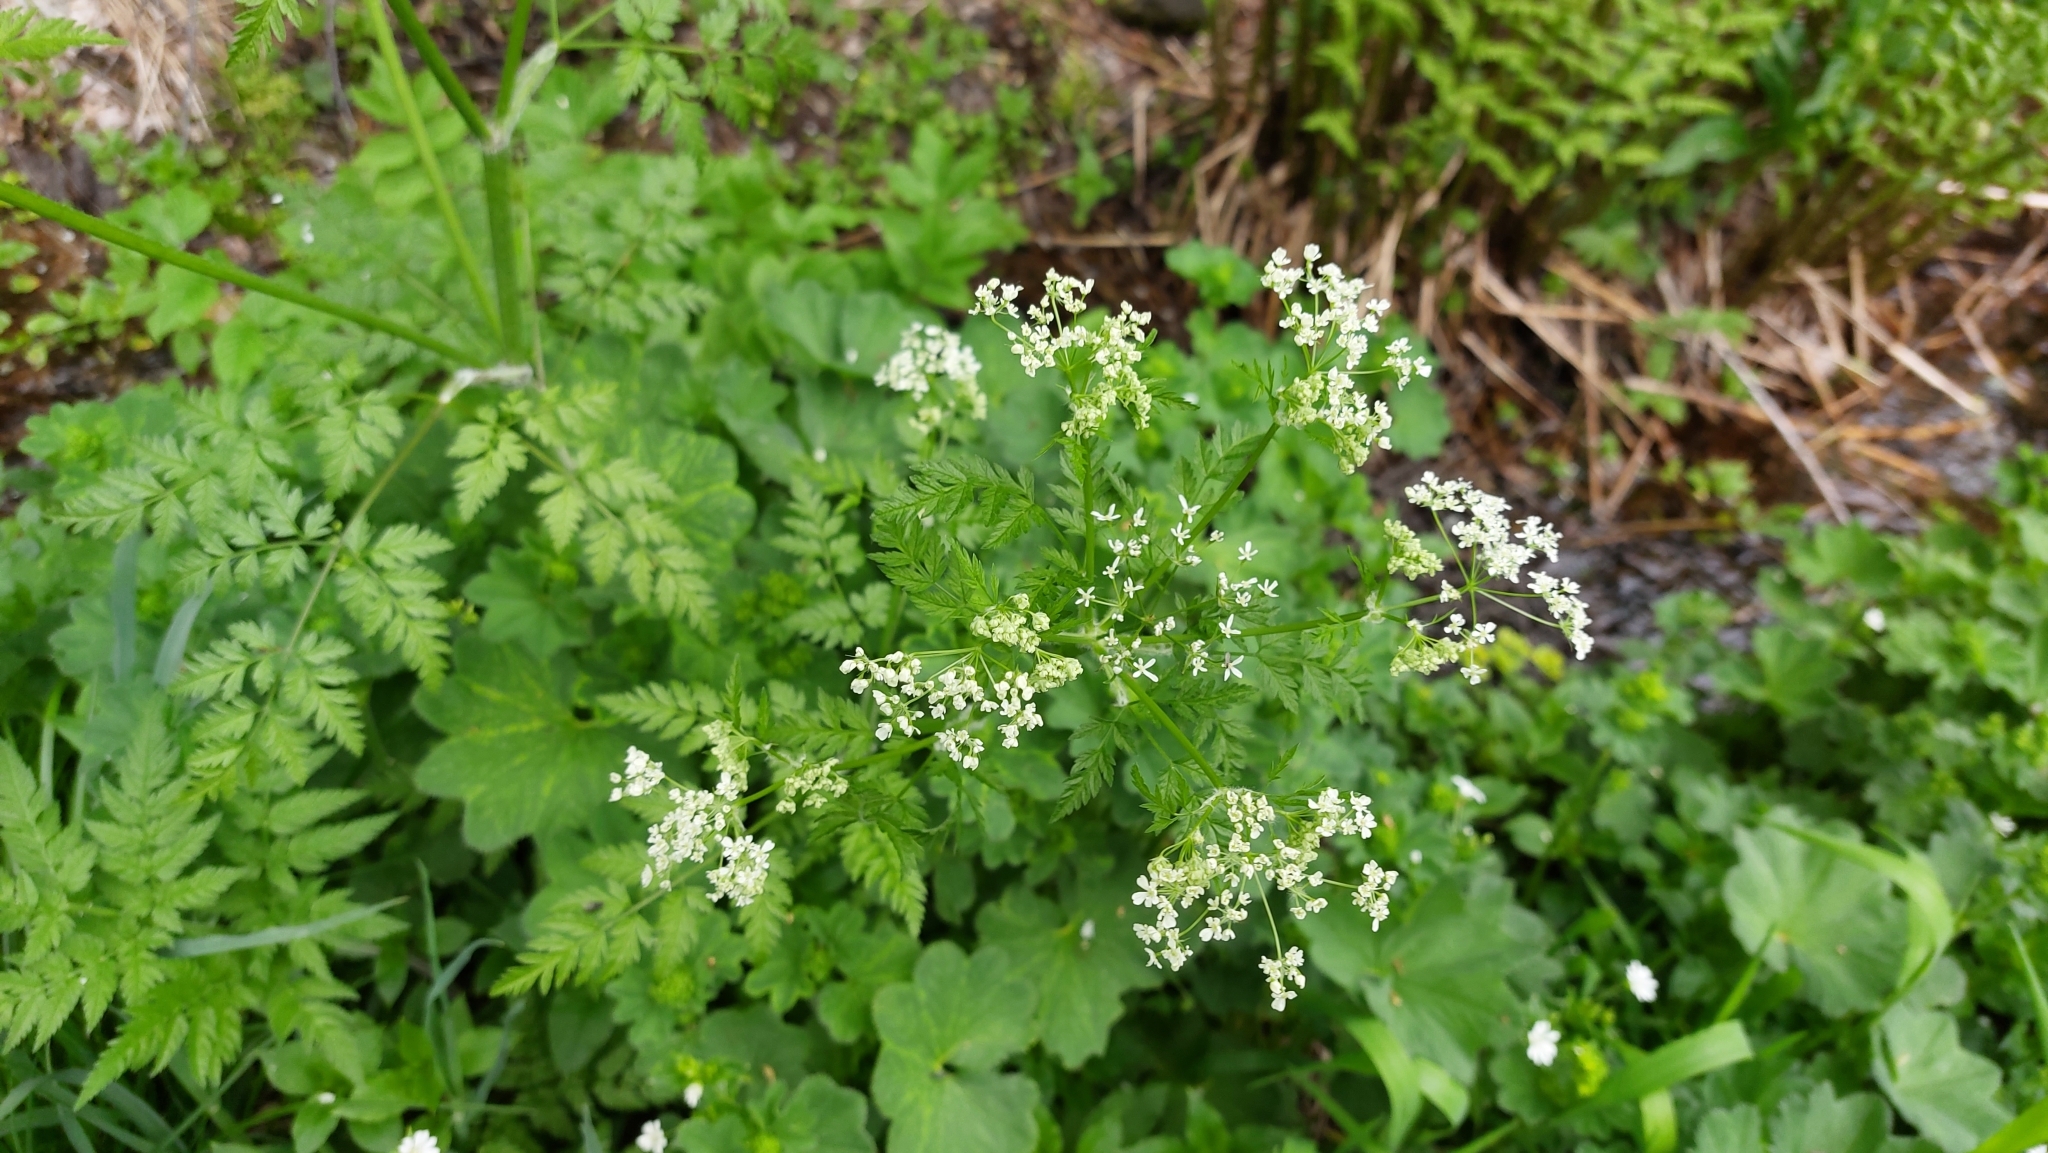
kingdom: Plantae
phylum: Tracheophyta
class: Magnoliopsida
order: Apiales
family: Apiaceae
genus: Anthriscus
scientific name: Anthriscus sylvestris
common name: Cow parsley
